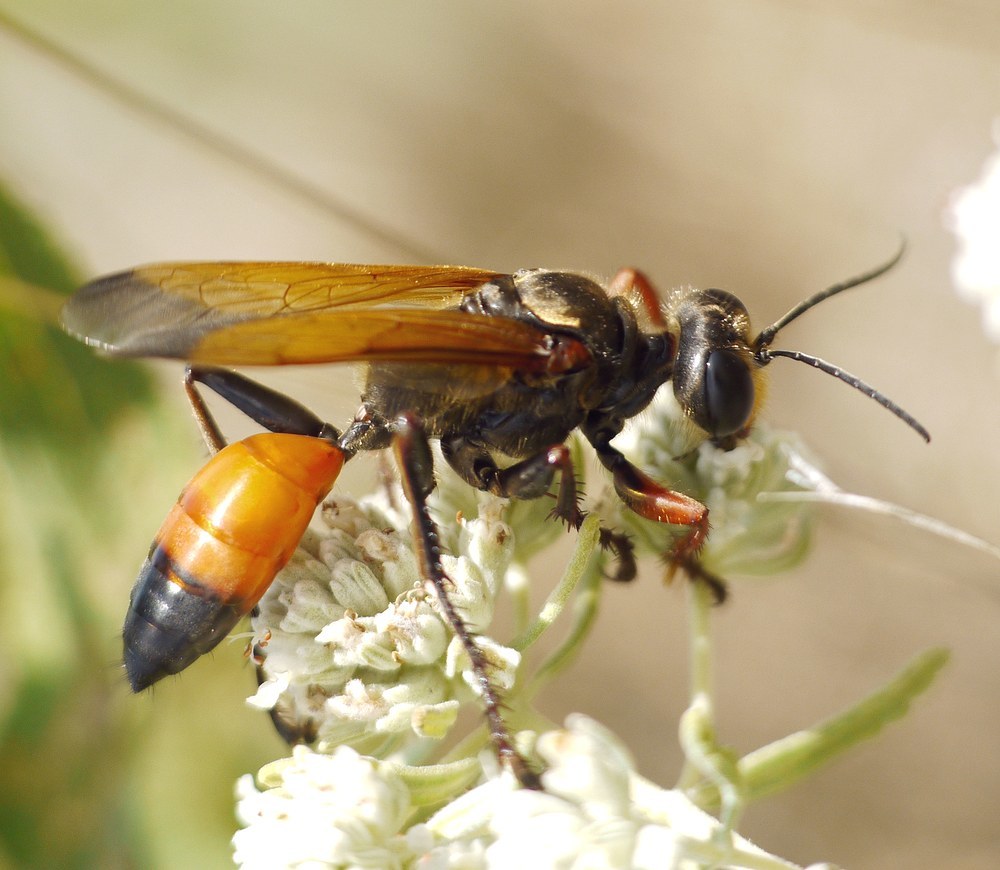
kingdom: Animalia
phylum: Arthropoda
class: Insecta
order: Hymenoptera
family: Sphecidae
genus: Sphex
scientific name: Sphex flavipennis
